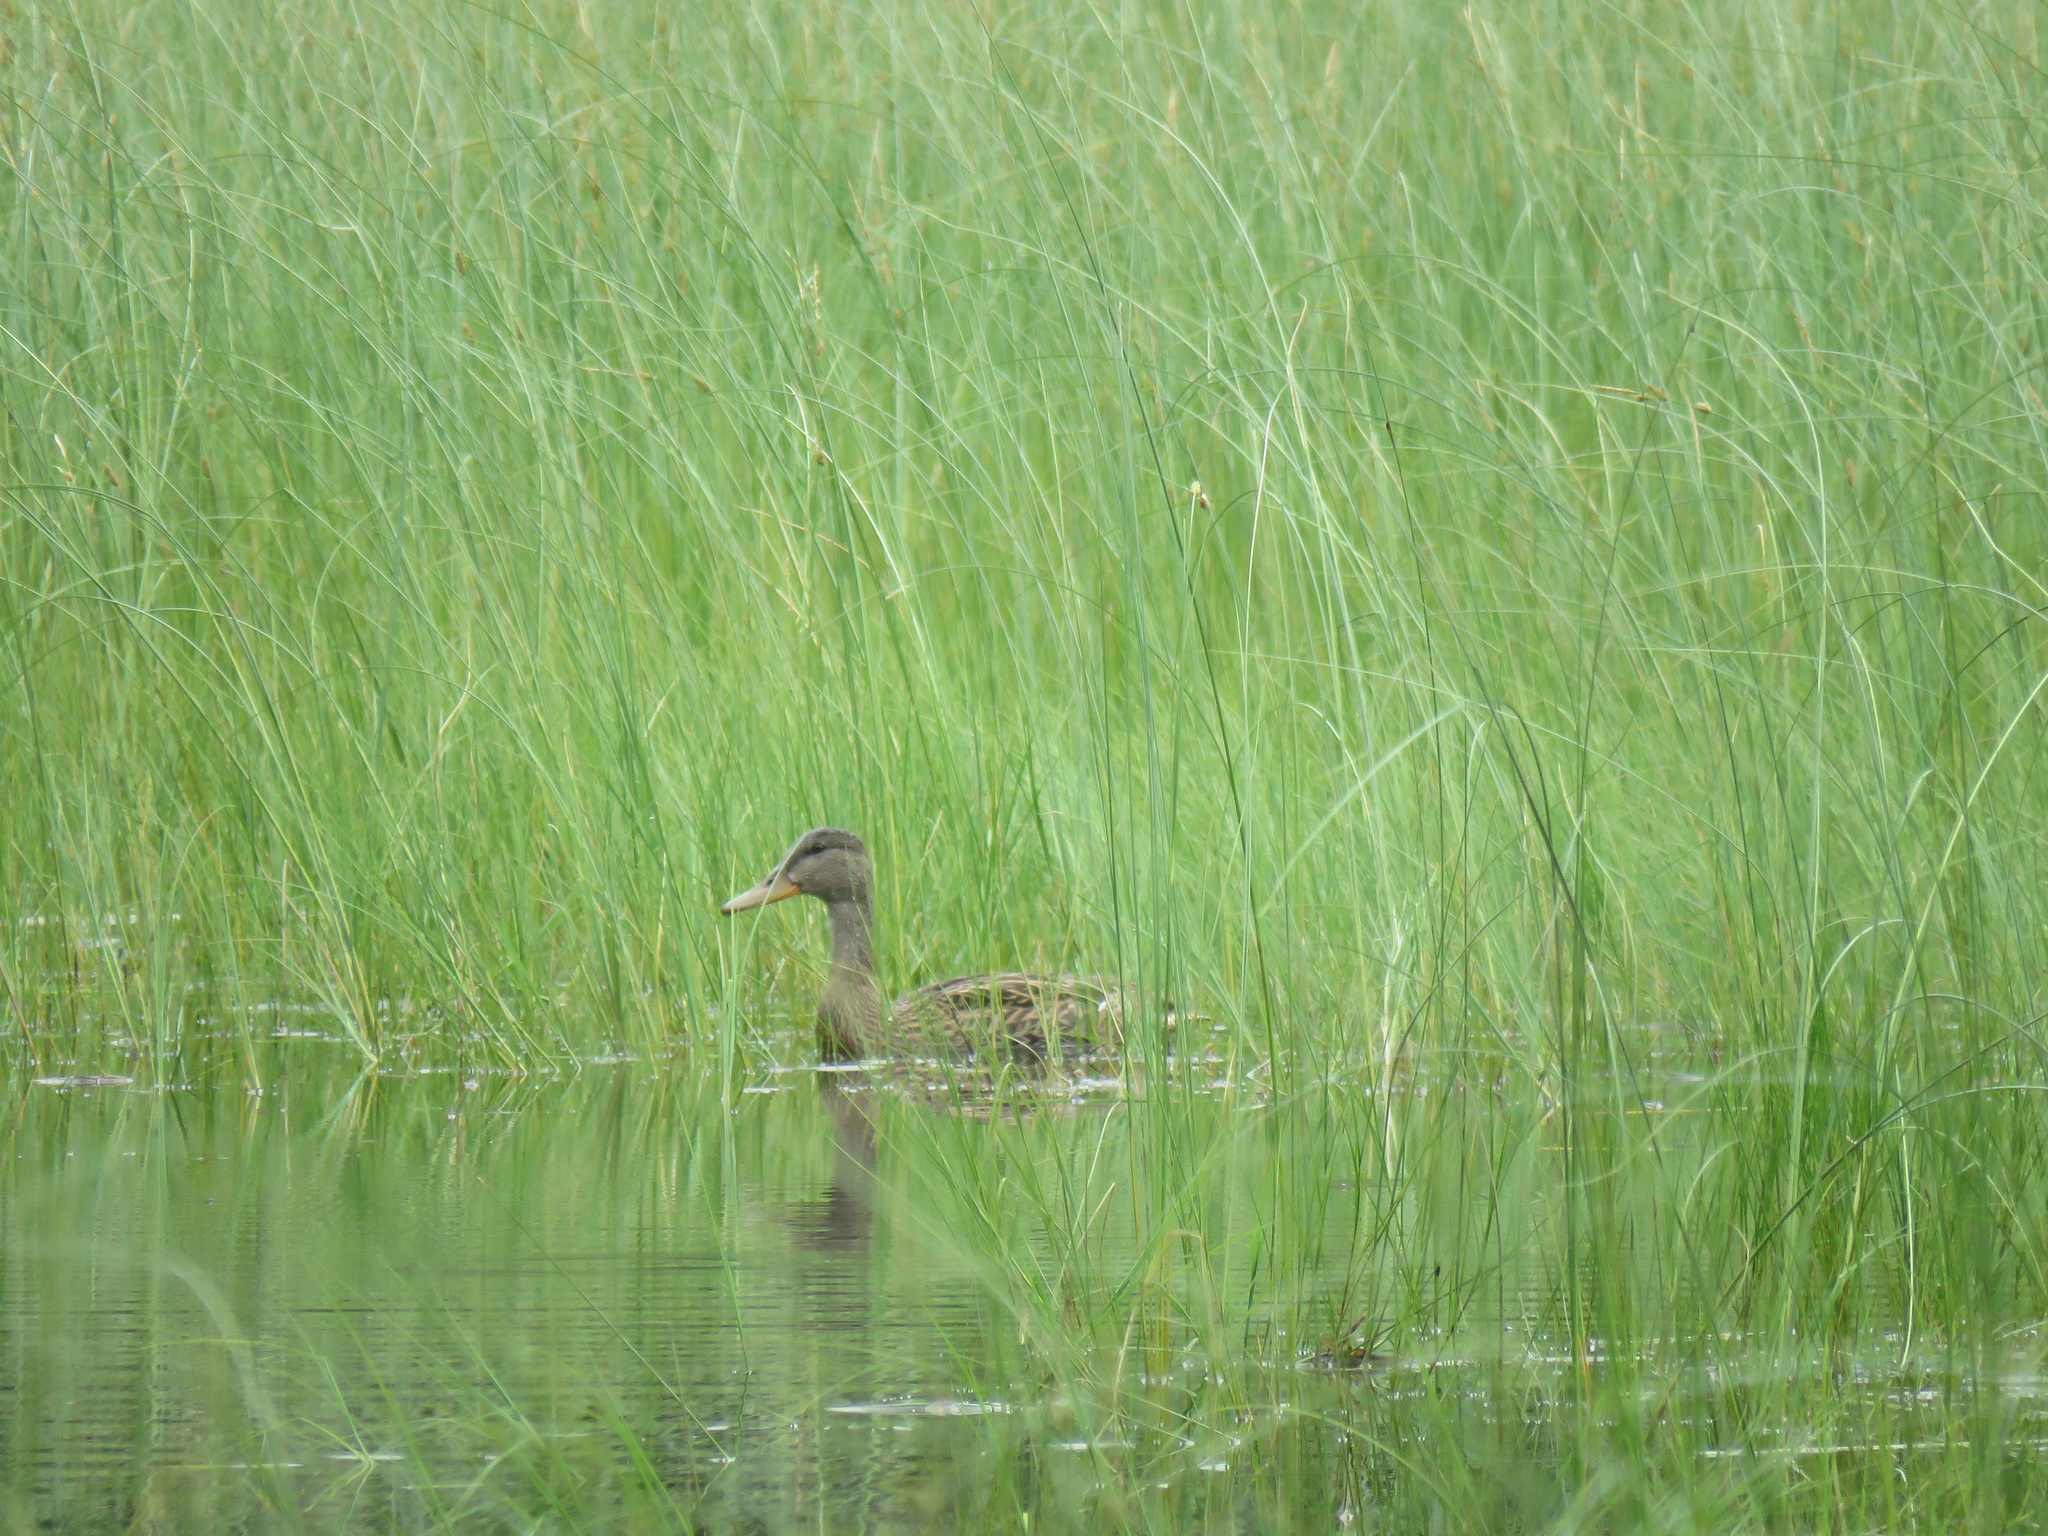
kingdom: Animalia
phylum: Chordata
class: Aves
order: Anseriformes
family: Anatidae
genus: Anas
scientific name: Anas platyrhynchos
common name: Mallard
